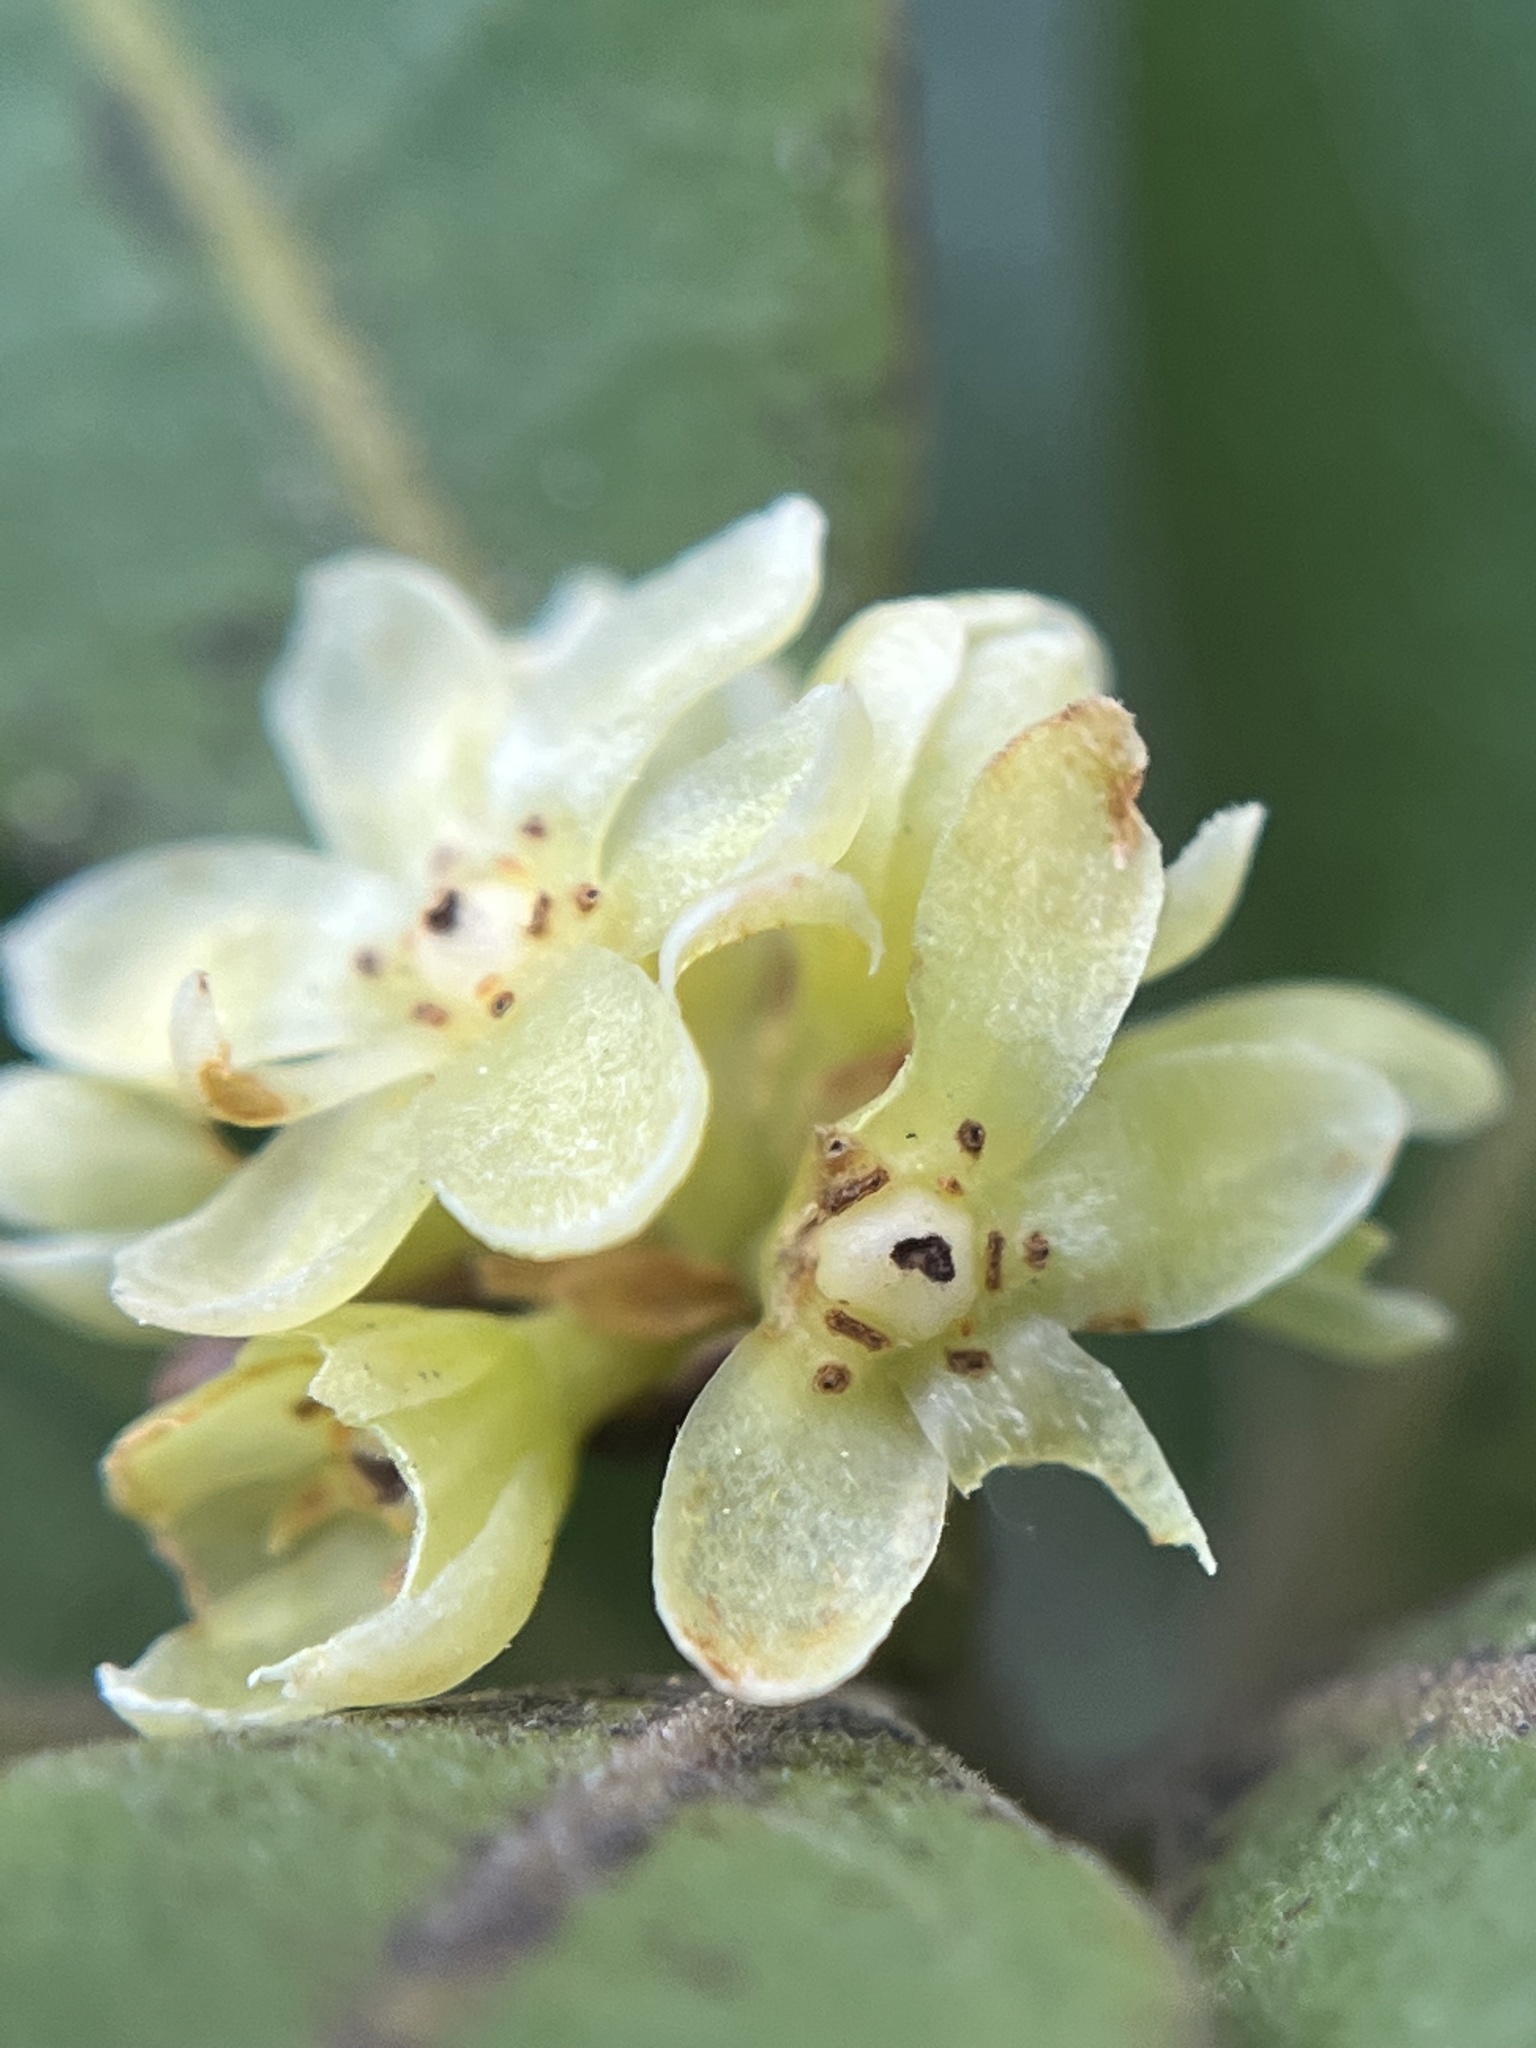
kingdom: Plantae
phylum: Tracheophyta
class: Magnoliopsida
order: Laurales
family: Lauraceae
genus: Umbellularia
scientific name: Umbellularia californica
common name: California bay
